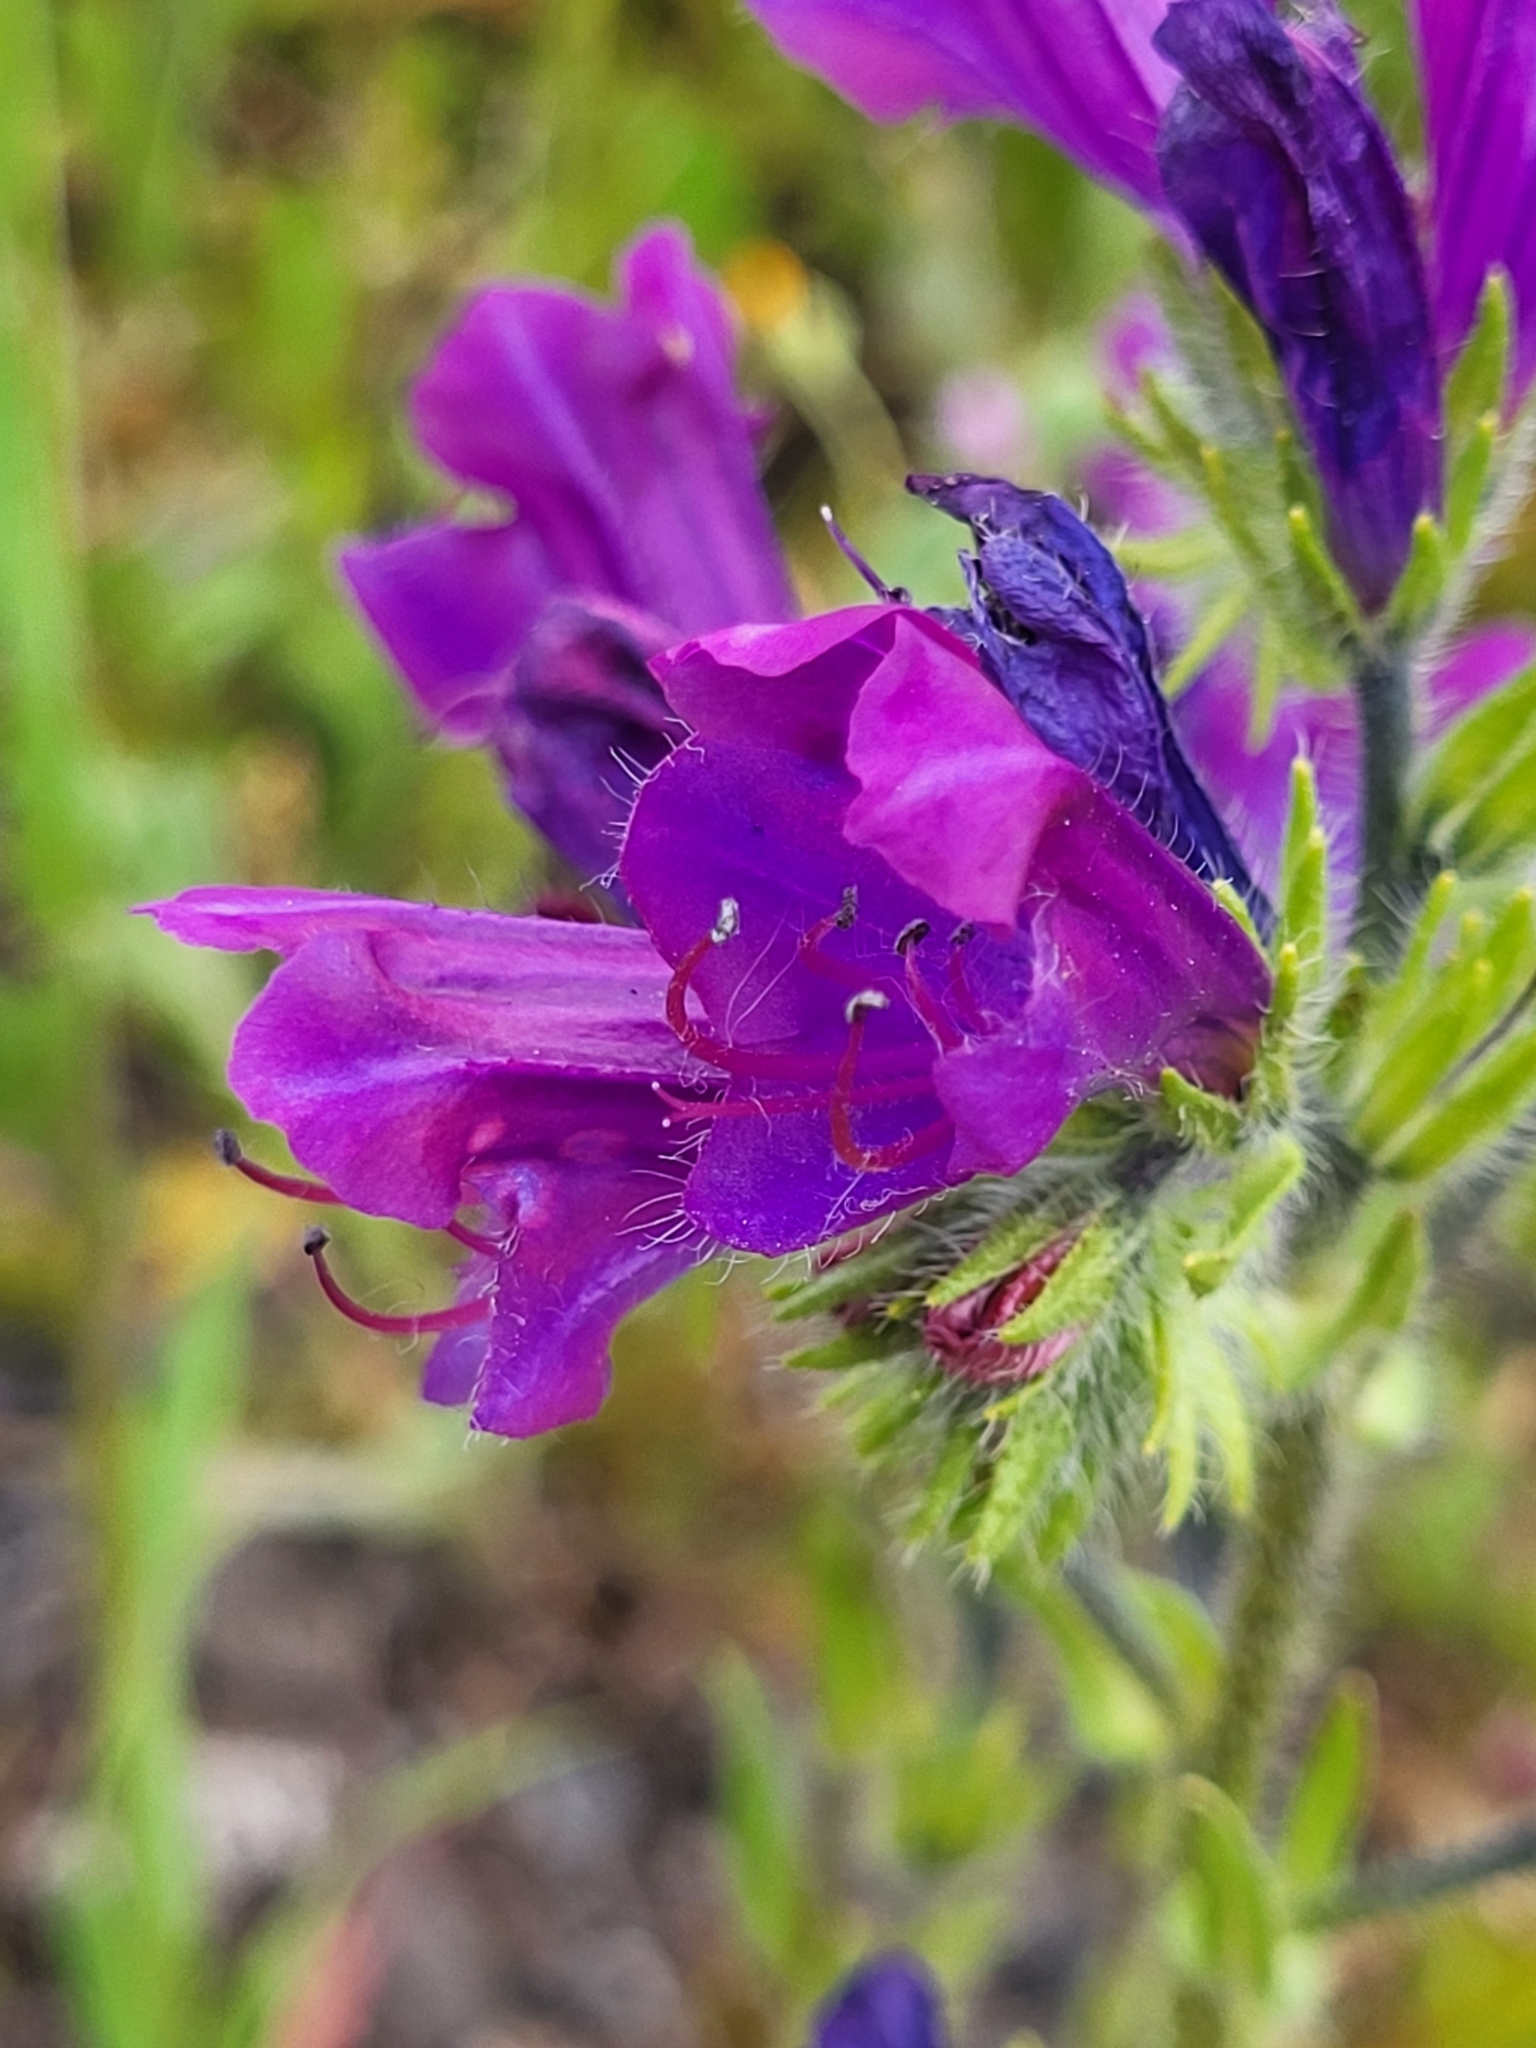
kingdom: Plantae
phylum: Tracheophyta
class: Magnoliopsida
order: Boraginales
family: Boraginaceae
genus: Echium
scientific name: Echium plantagineum
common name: Purple viper's-bugloss
